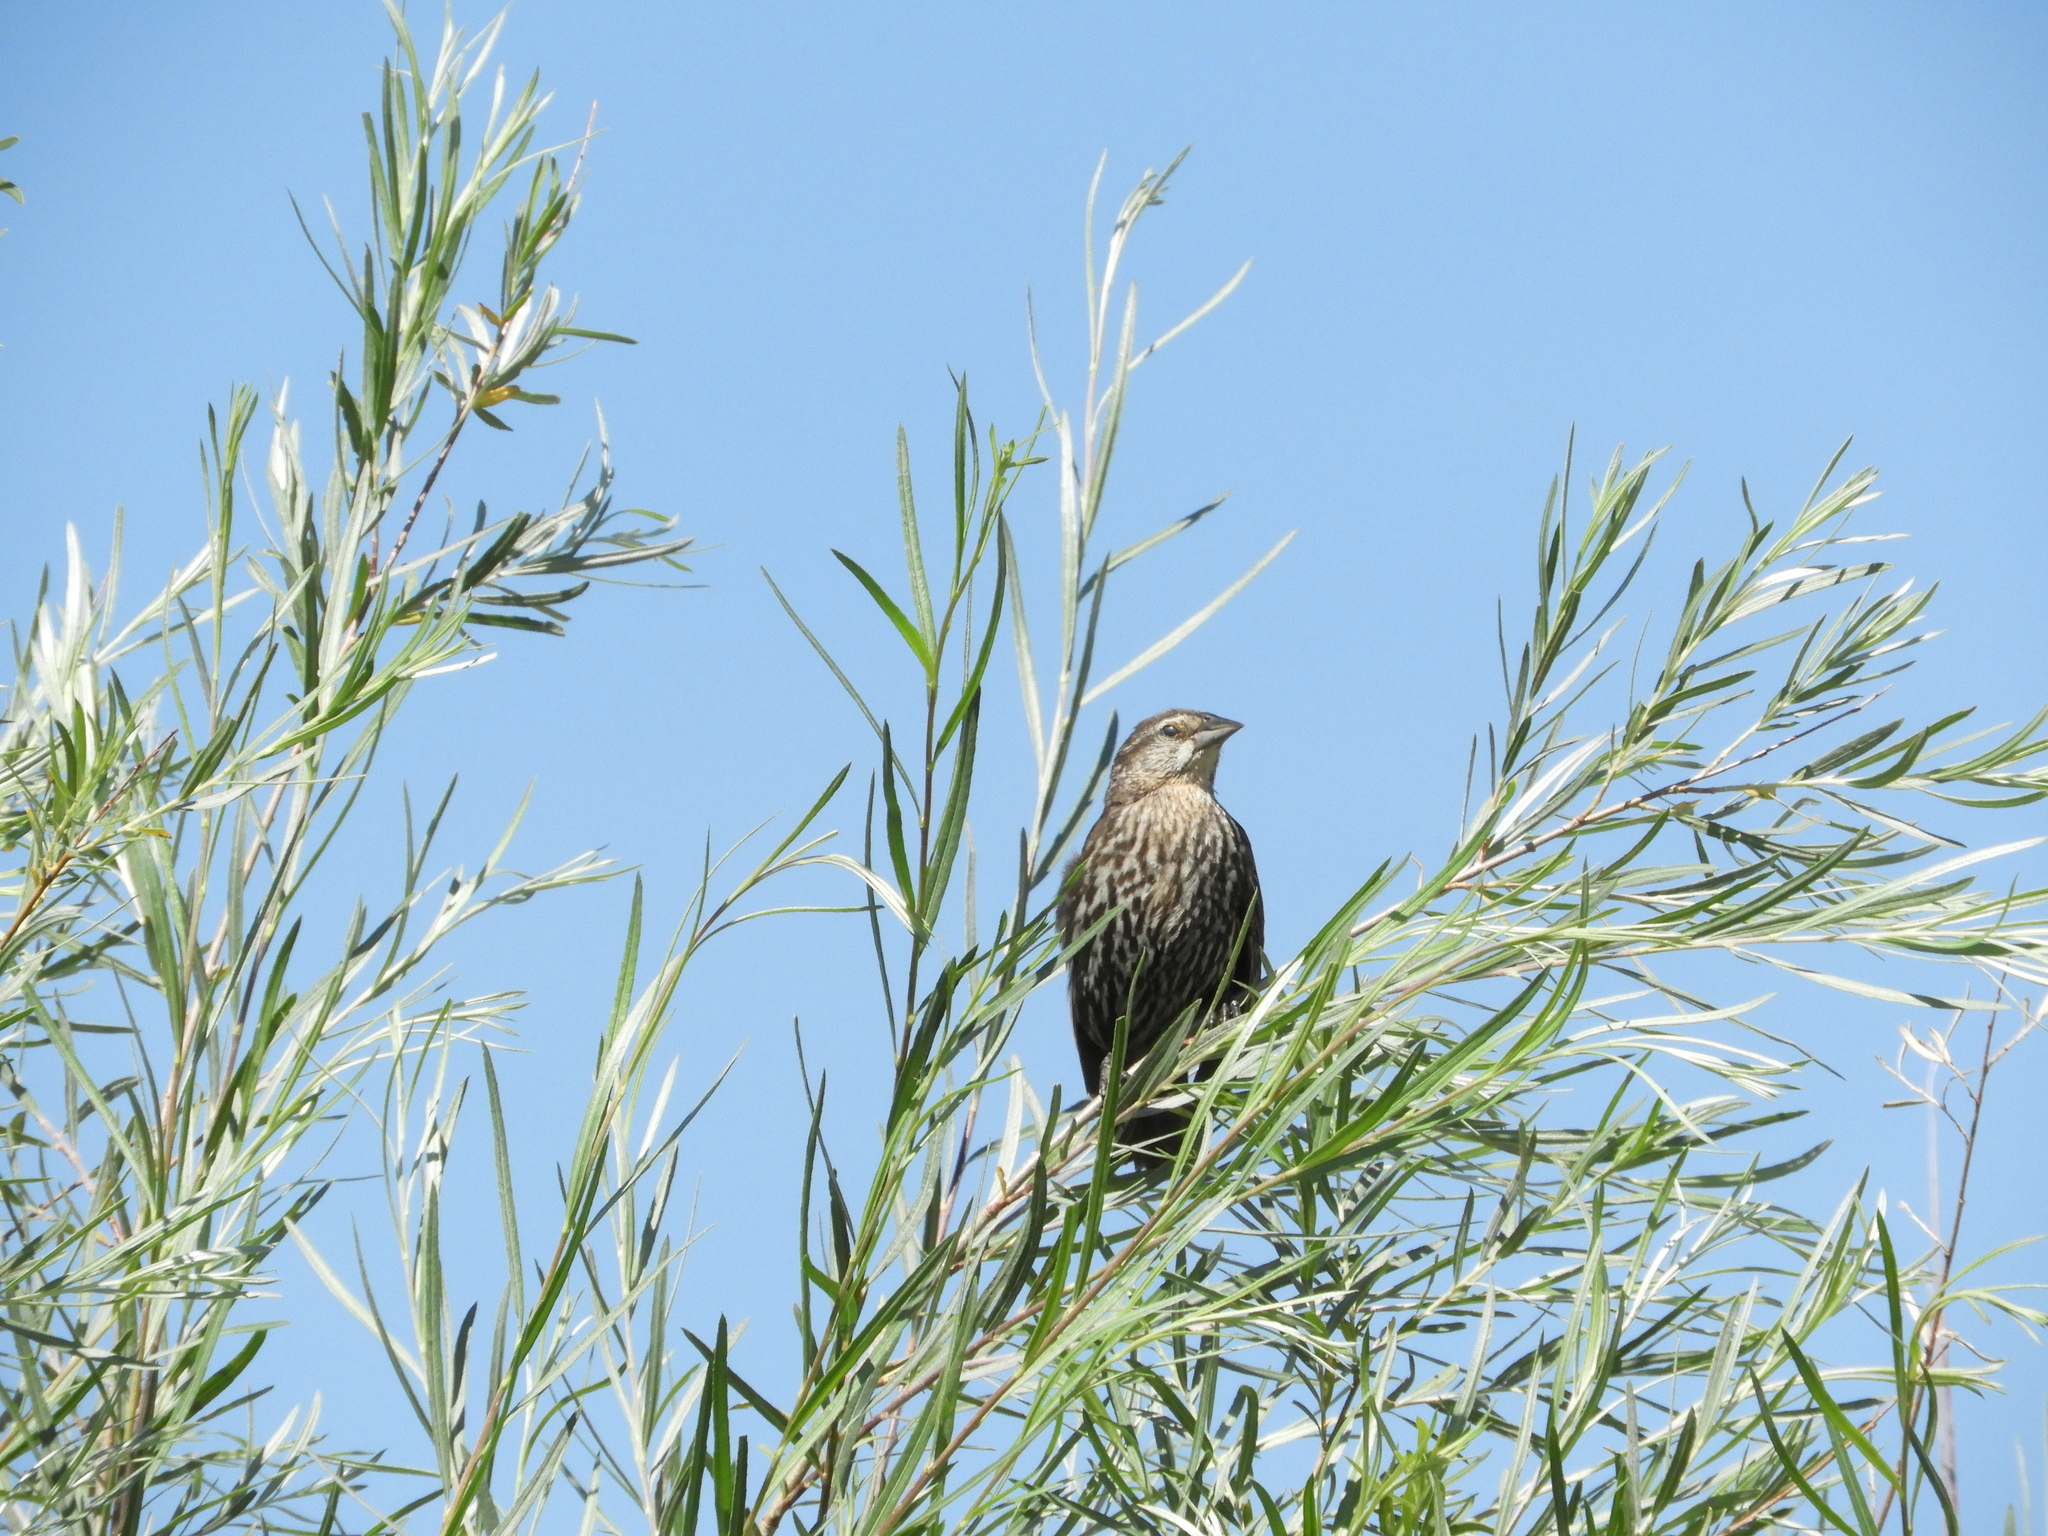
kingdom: Animalia
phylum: Chordata
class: Aves
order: Passeriformes
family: Icteridae
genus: Agelaius
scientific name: Agelaius phoeniceus
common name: Red-winged blackbird
